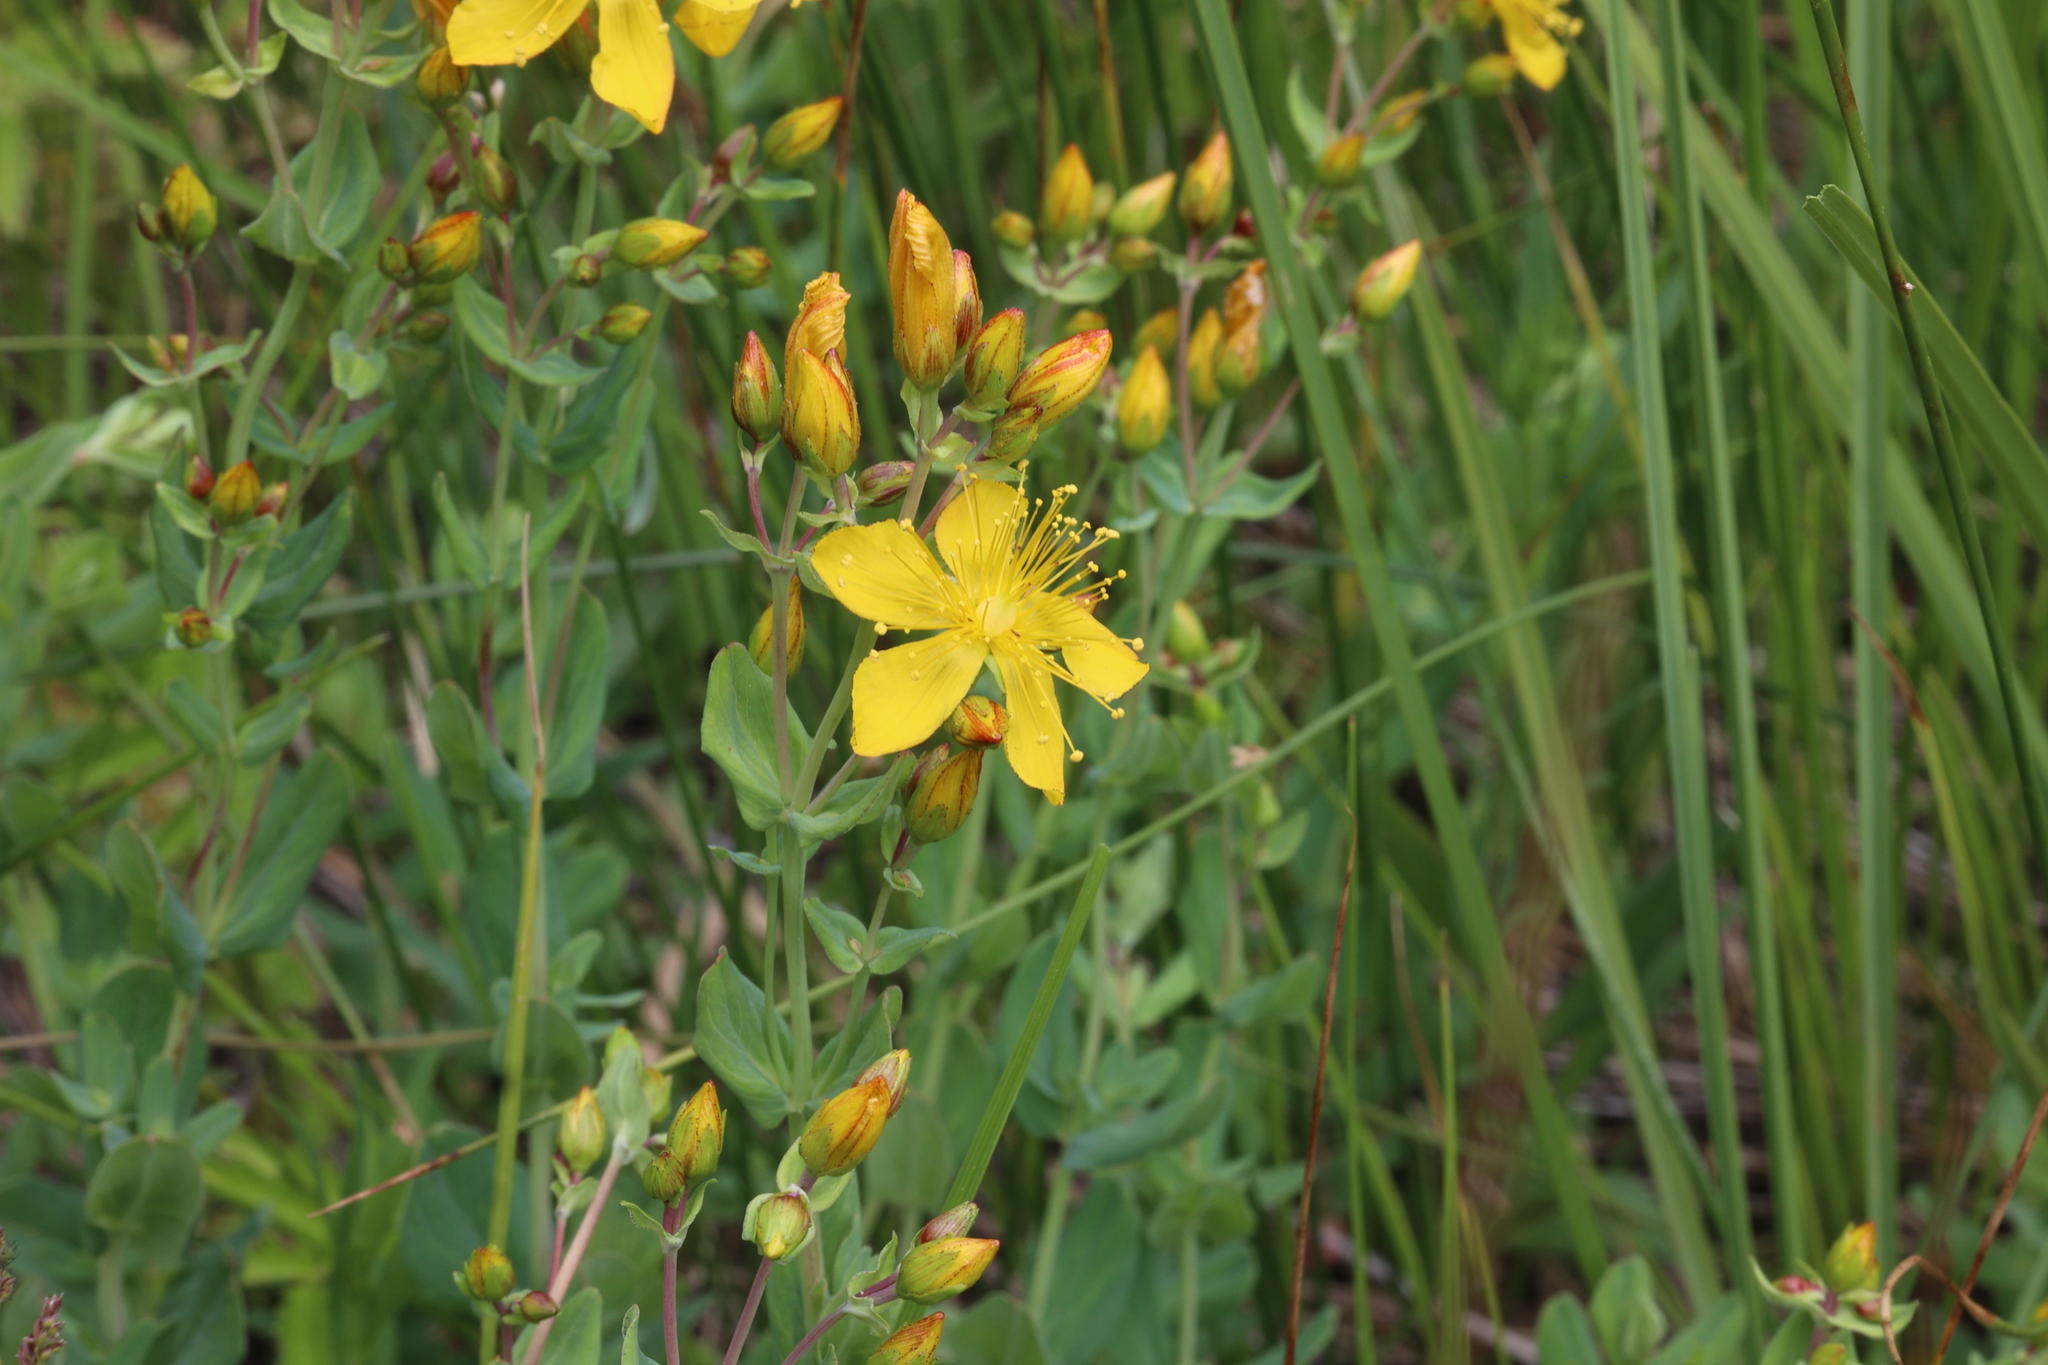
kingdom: Plantae
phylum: Tracheophyta
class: Magnoliopsida
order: Malpighiales
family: Hypericaceae
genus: Hypericum
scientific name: Hypericum scouleri
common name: Scouler's st. john's-wort
